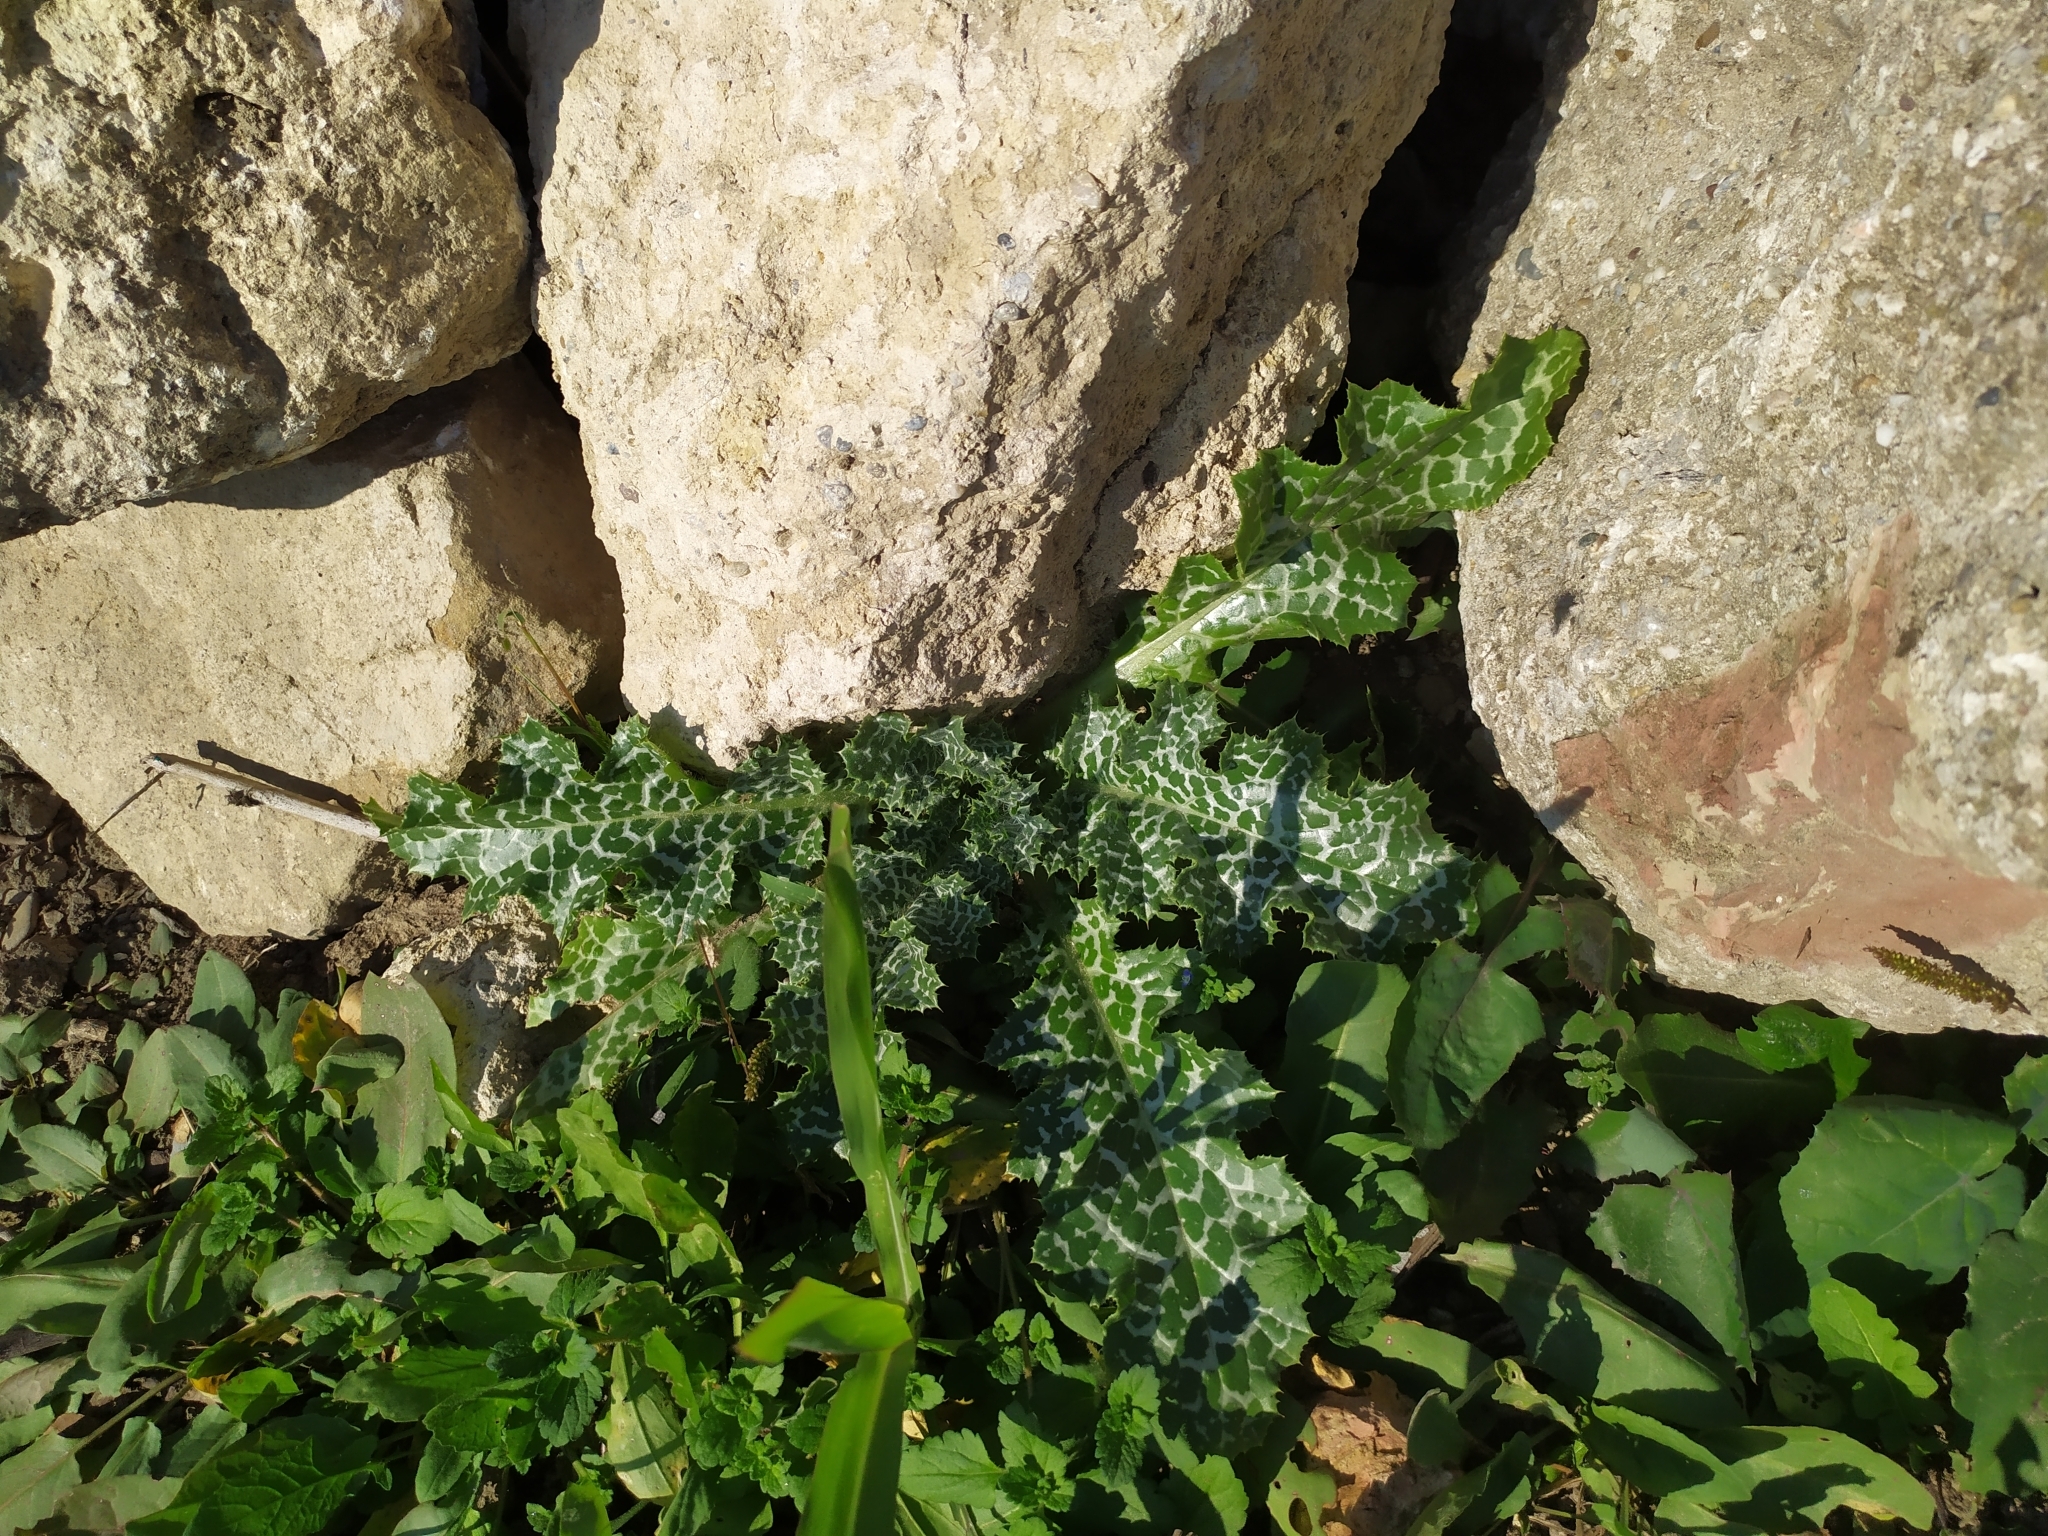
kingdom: Plantae
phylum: Tracheophyta
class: Magnoliopsida
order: Asterales
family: Asteraceae
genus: Silybum
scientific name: Silybum marianum
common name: Milk thistle
